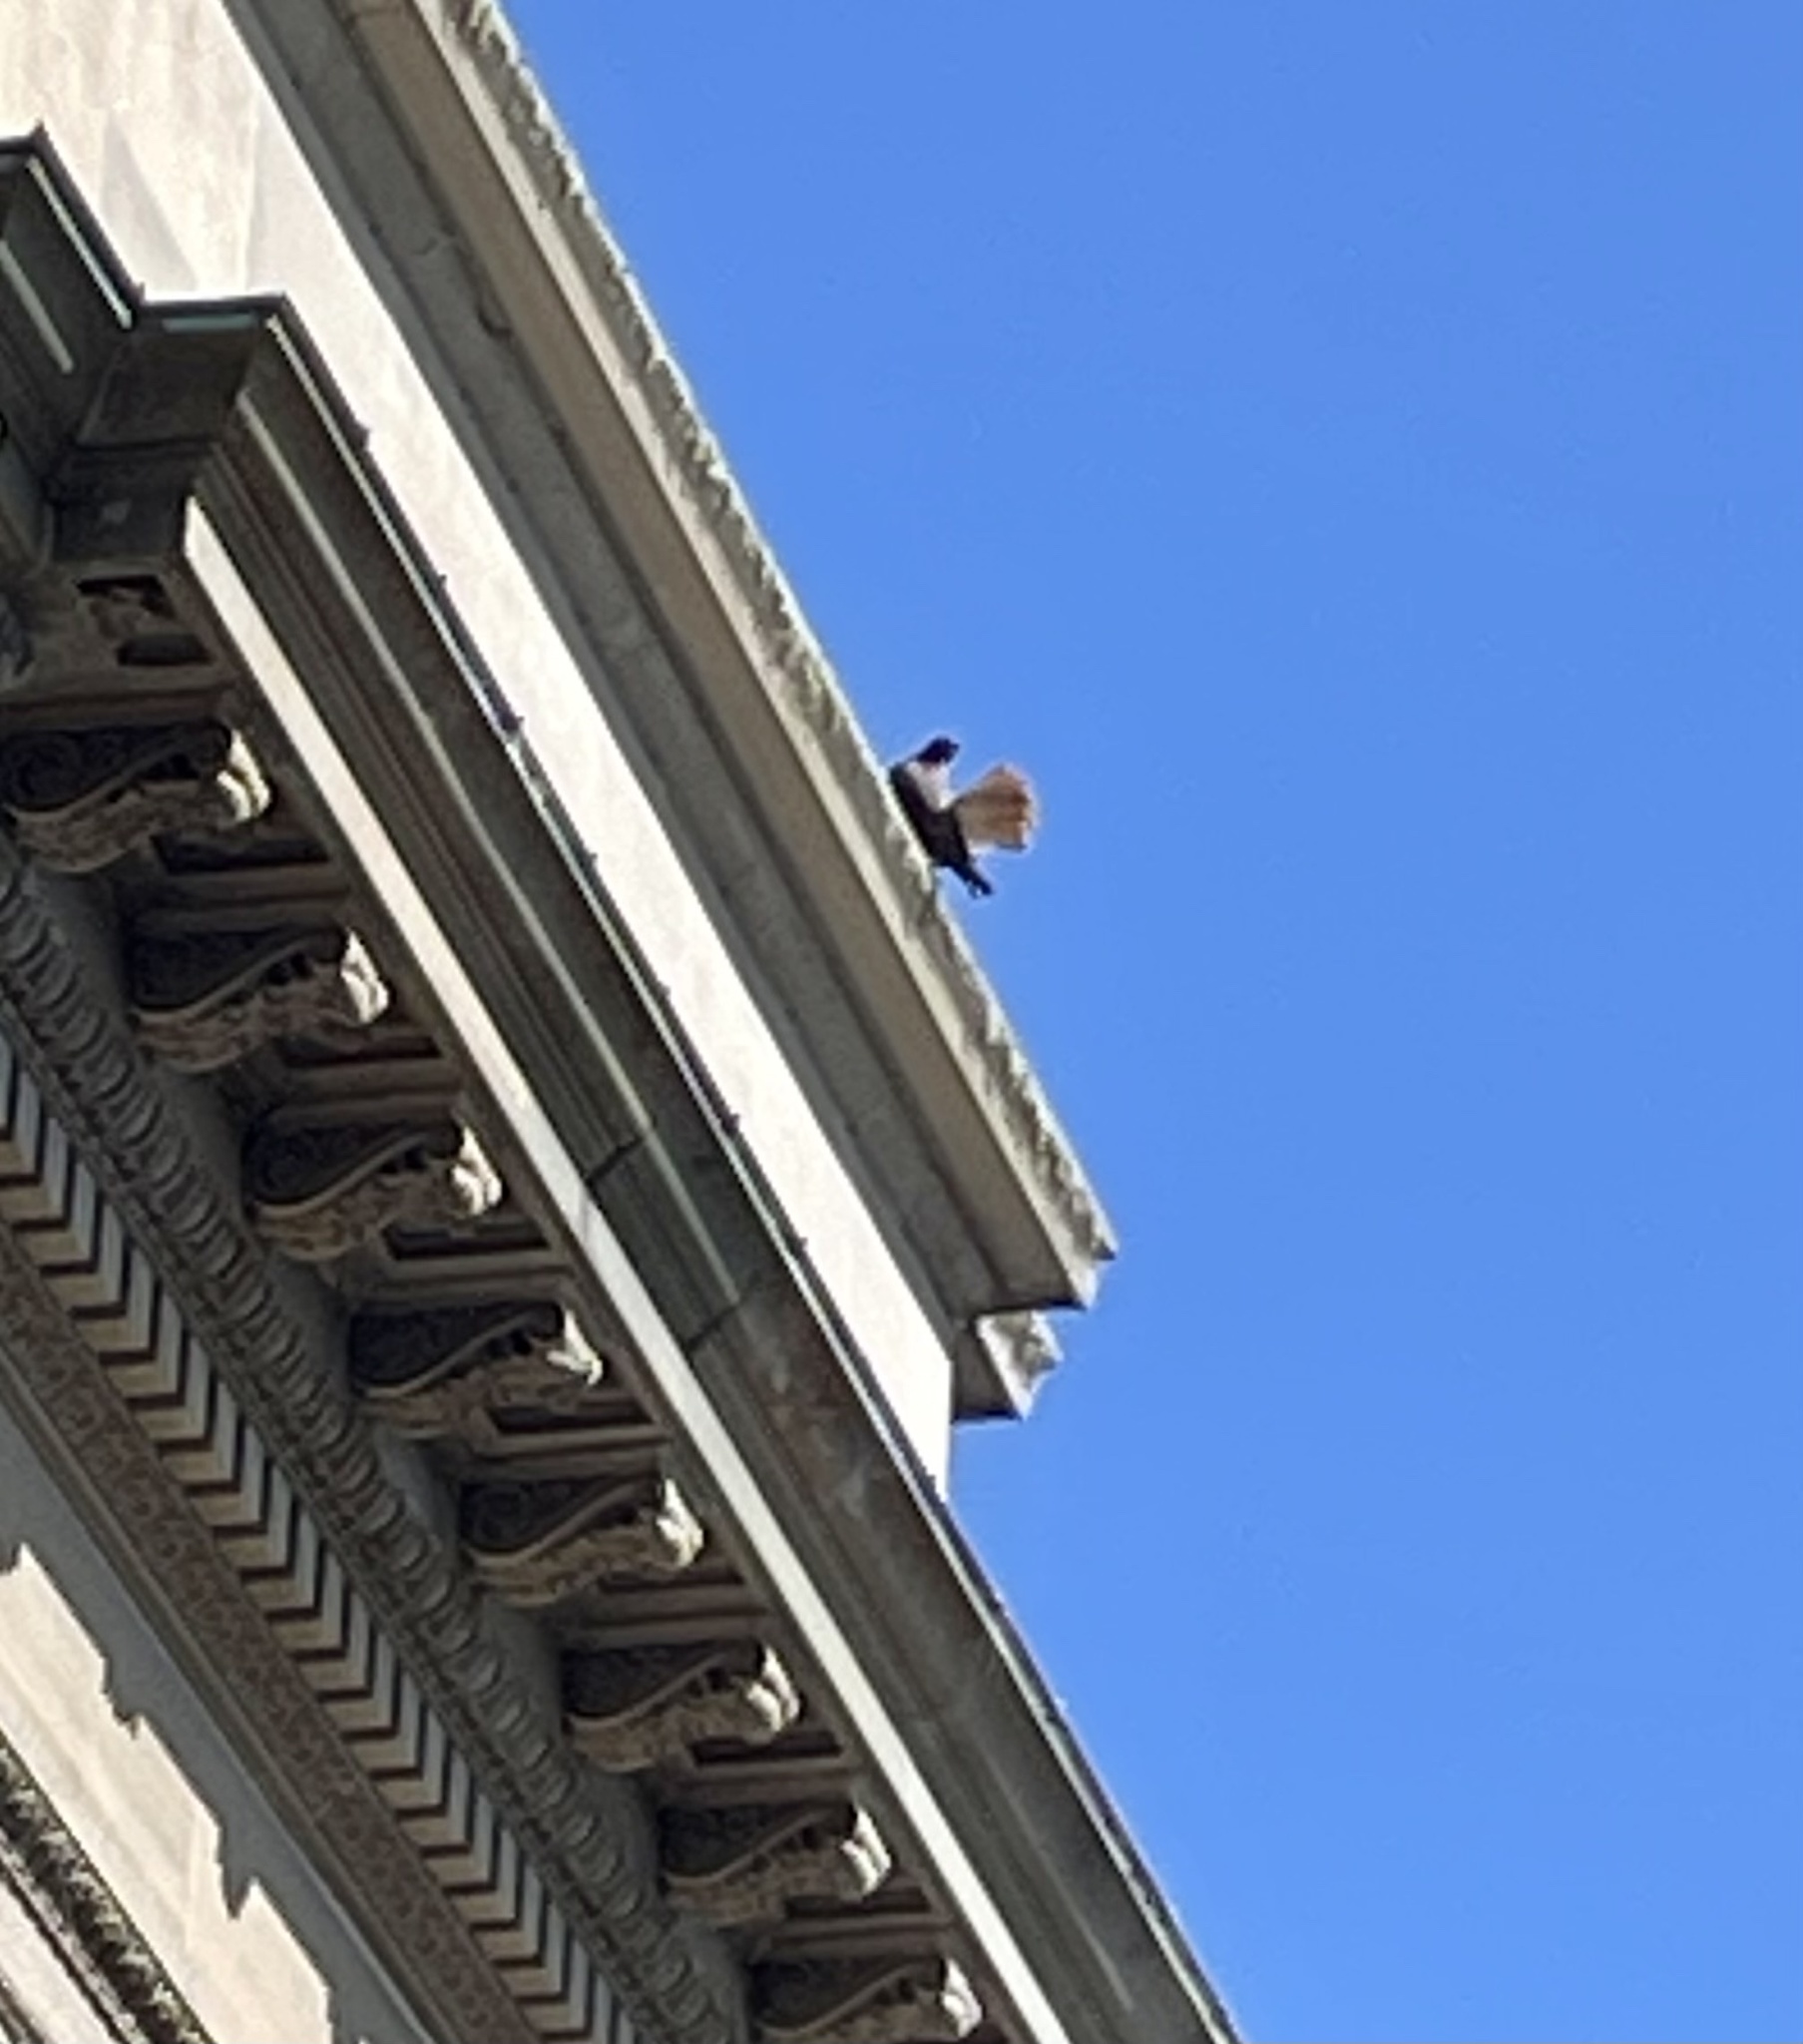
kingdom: Animalia
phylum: Chordata
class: Aves
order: Accipitriformes
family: Accipitridae
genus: Buteo
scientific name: Buteo jamaicensis
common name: Red-tailed hawk
